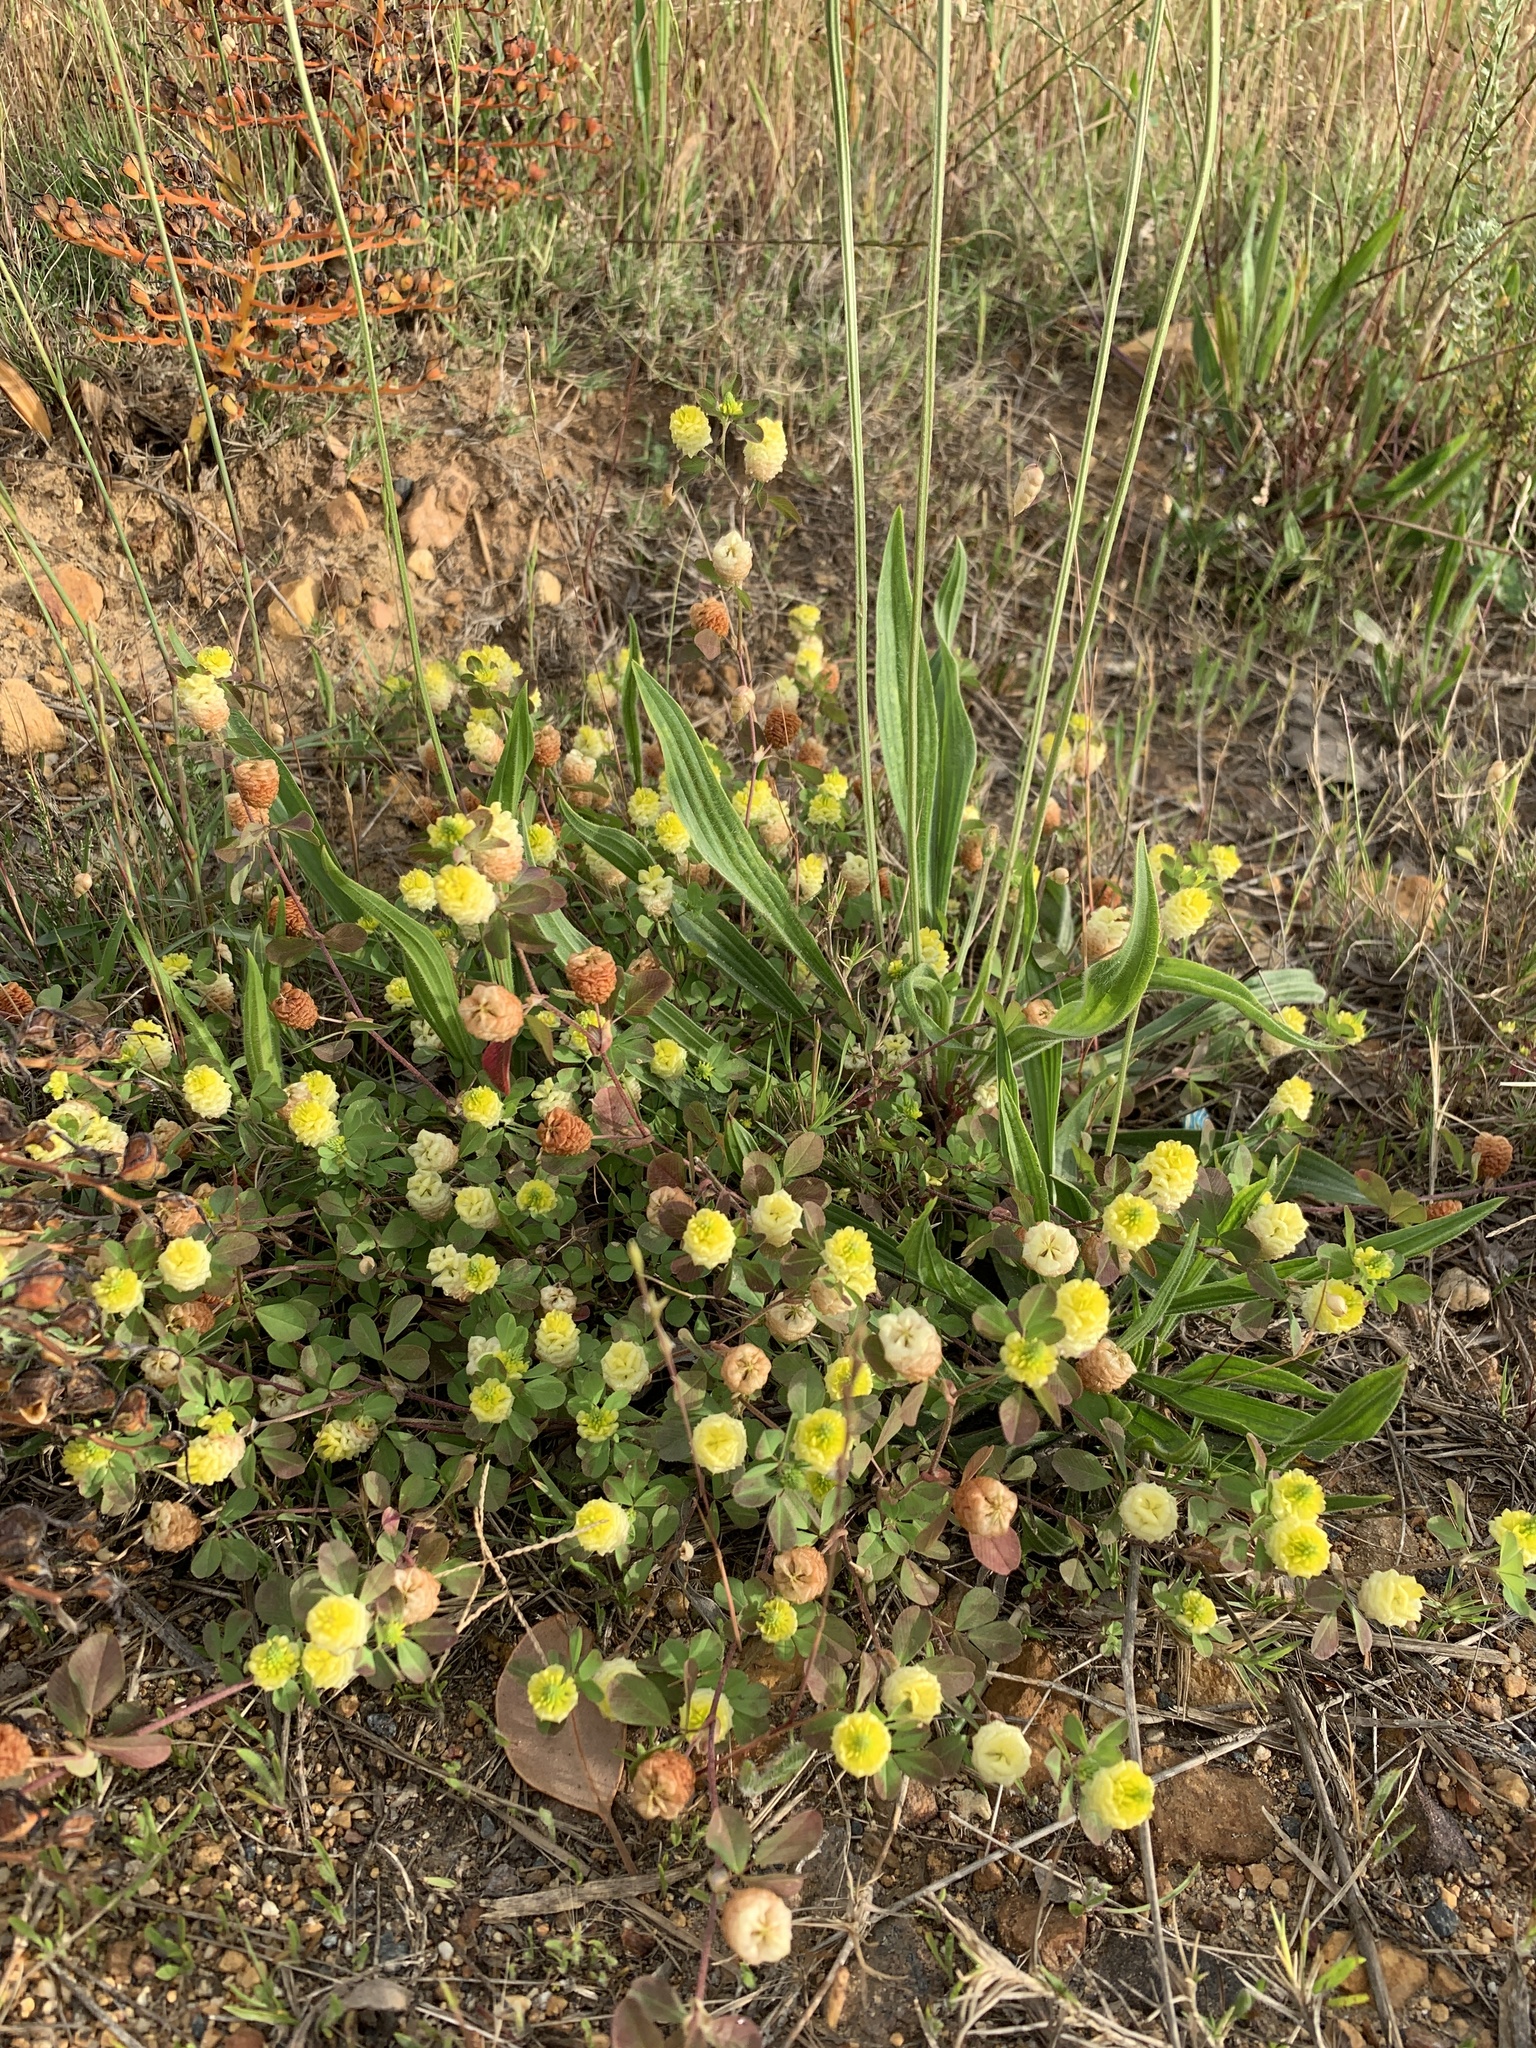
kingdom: Plantae
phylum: Tracheophyta
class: Magnoliopsida
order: Fabales
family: Fabaceae
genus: Trifolium
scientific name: Trifolium campestre
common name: Field clover
